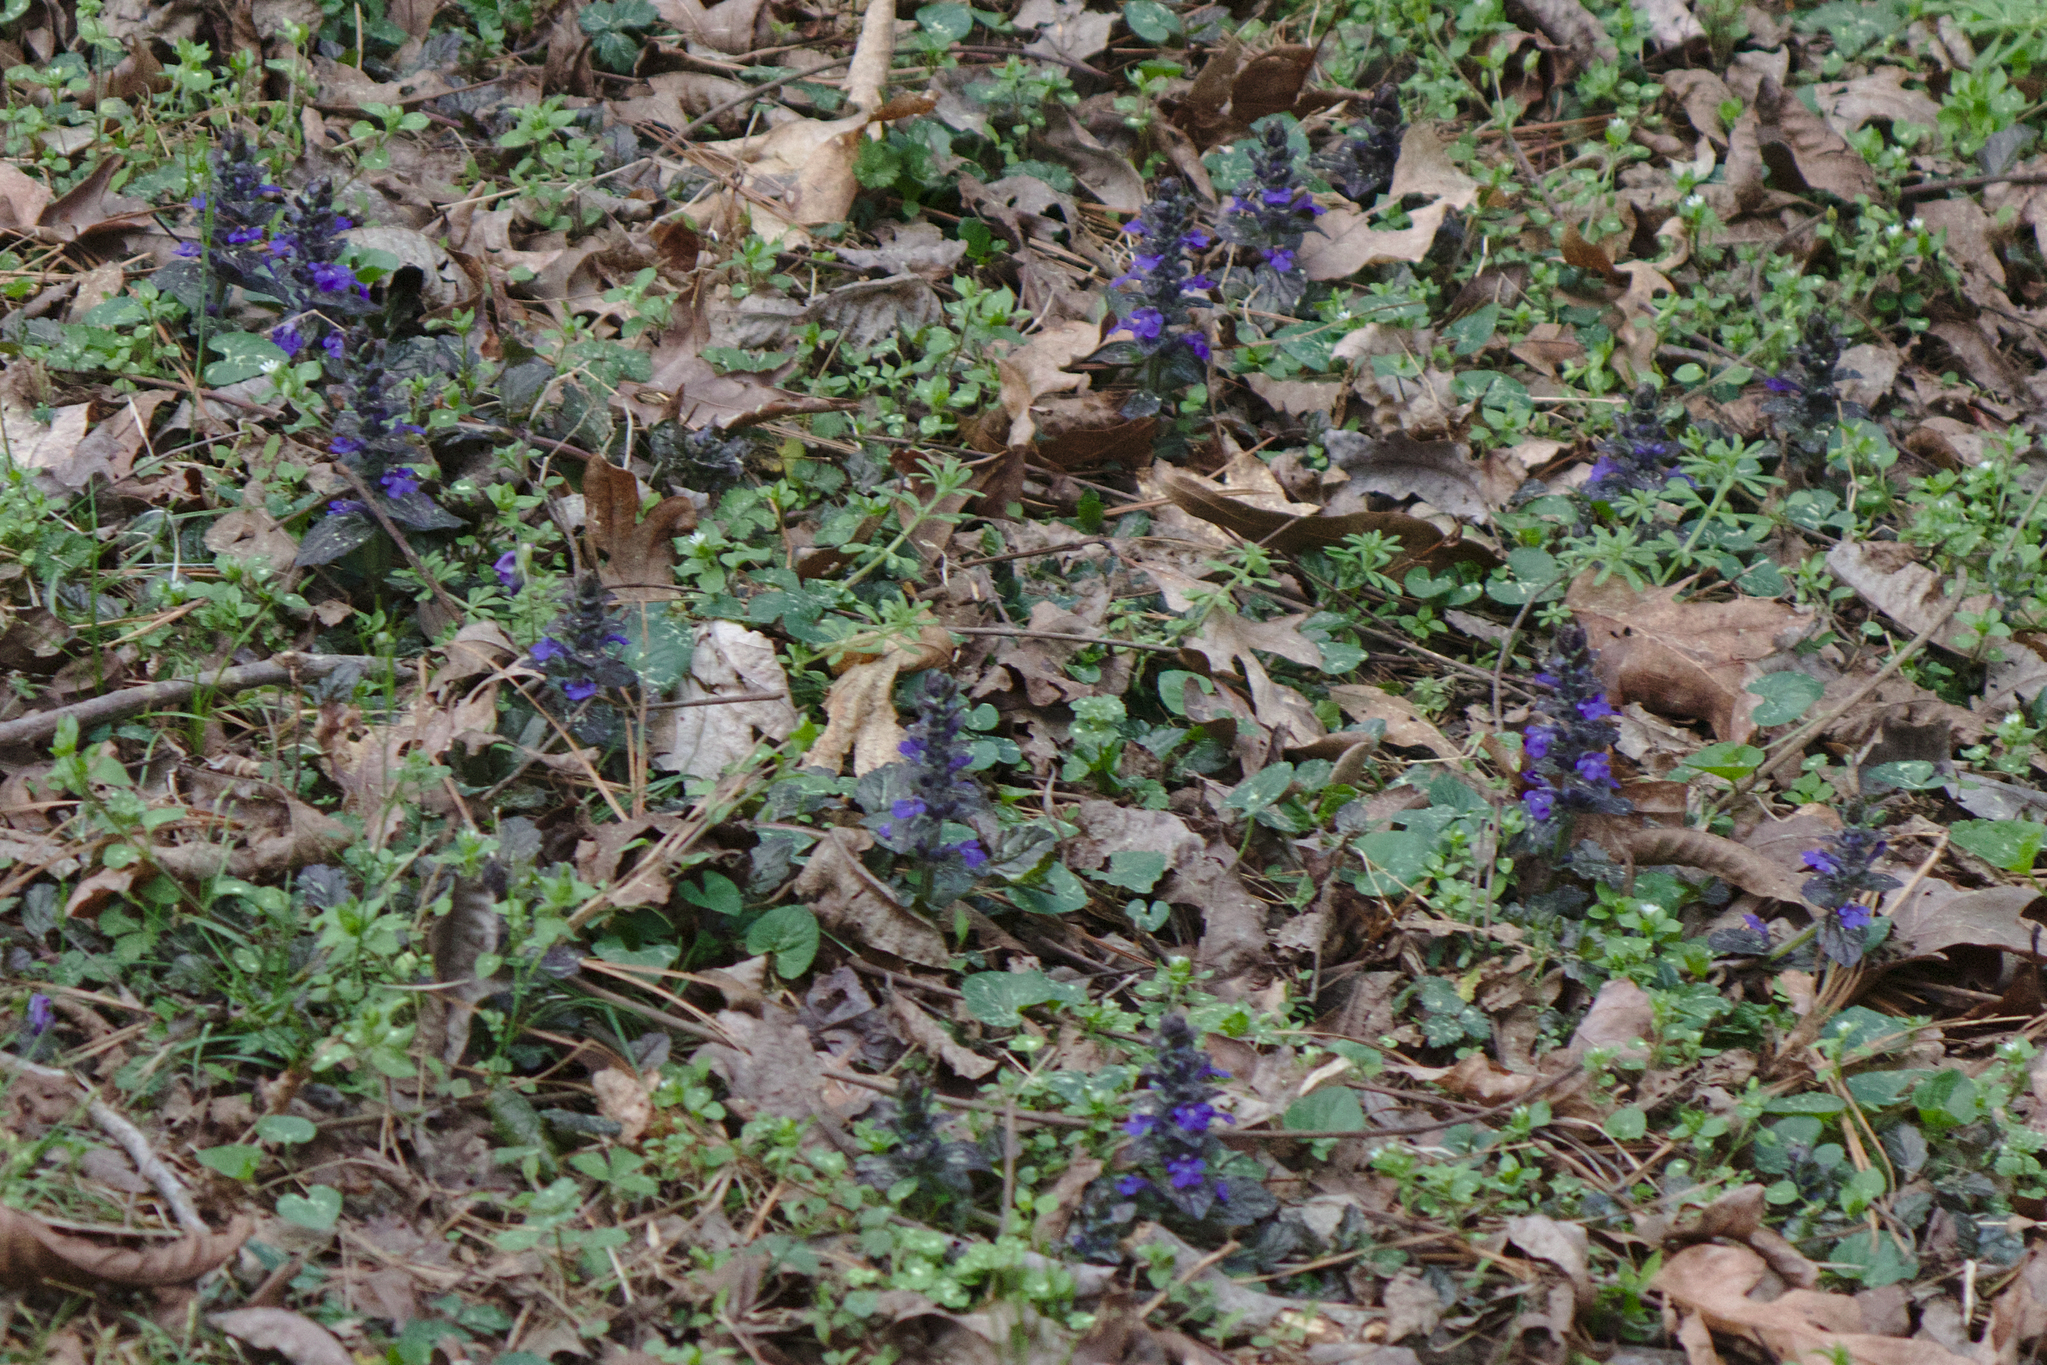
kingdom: Plantae
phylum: Tracheophyta
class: Magnoliopsida
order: Lamiales
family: Lamiaceae
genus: Ajuga
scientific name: Ajuga reptans
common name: Bugle
